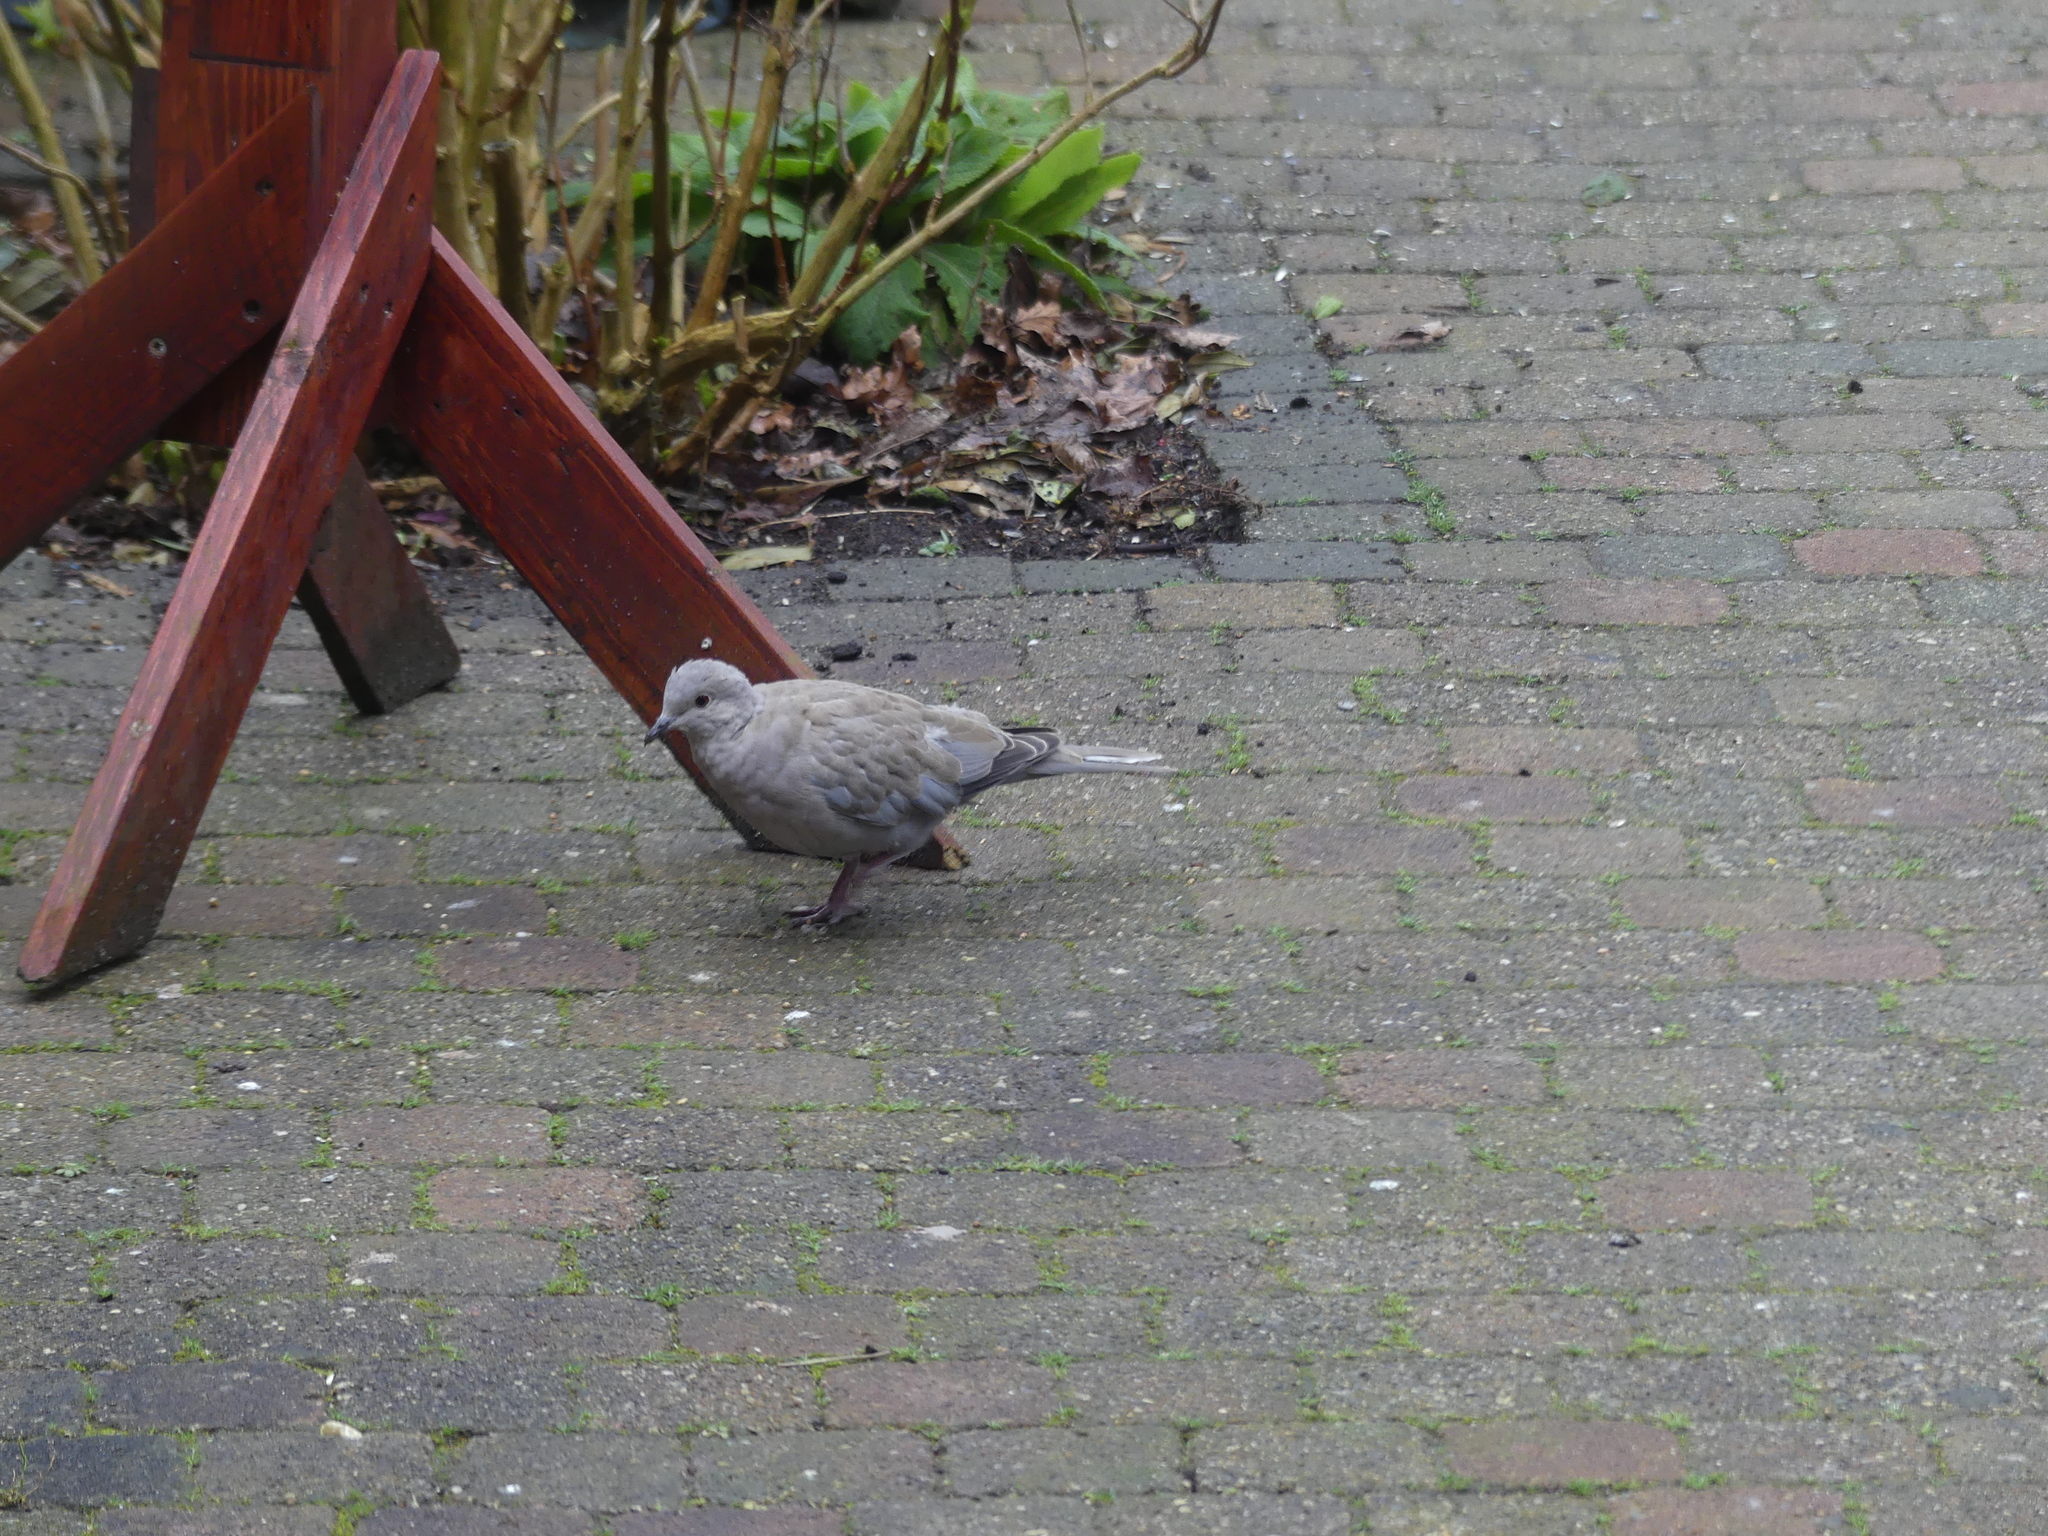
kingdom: Animalia
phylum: Chordata
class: Aves
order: Columbiformes
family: Columbidae
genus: Streptopelia
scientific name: Streptopelia decaocto
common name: Eurasian collared dove
